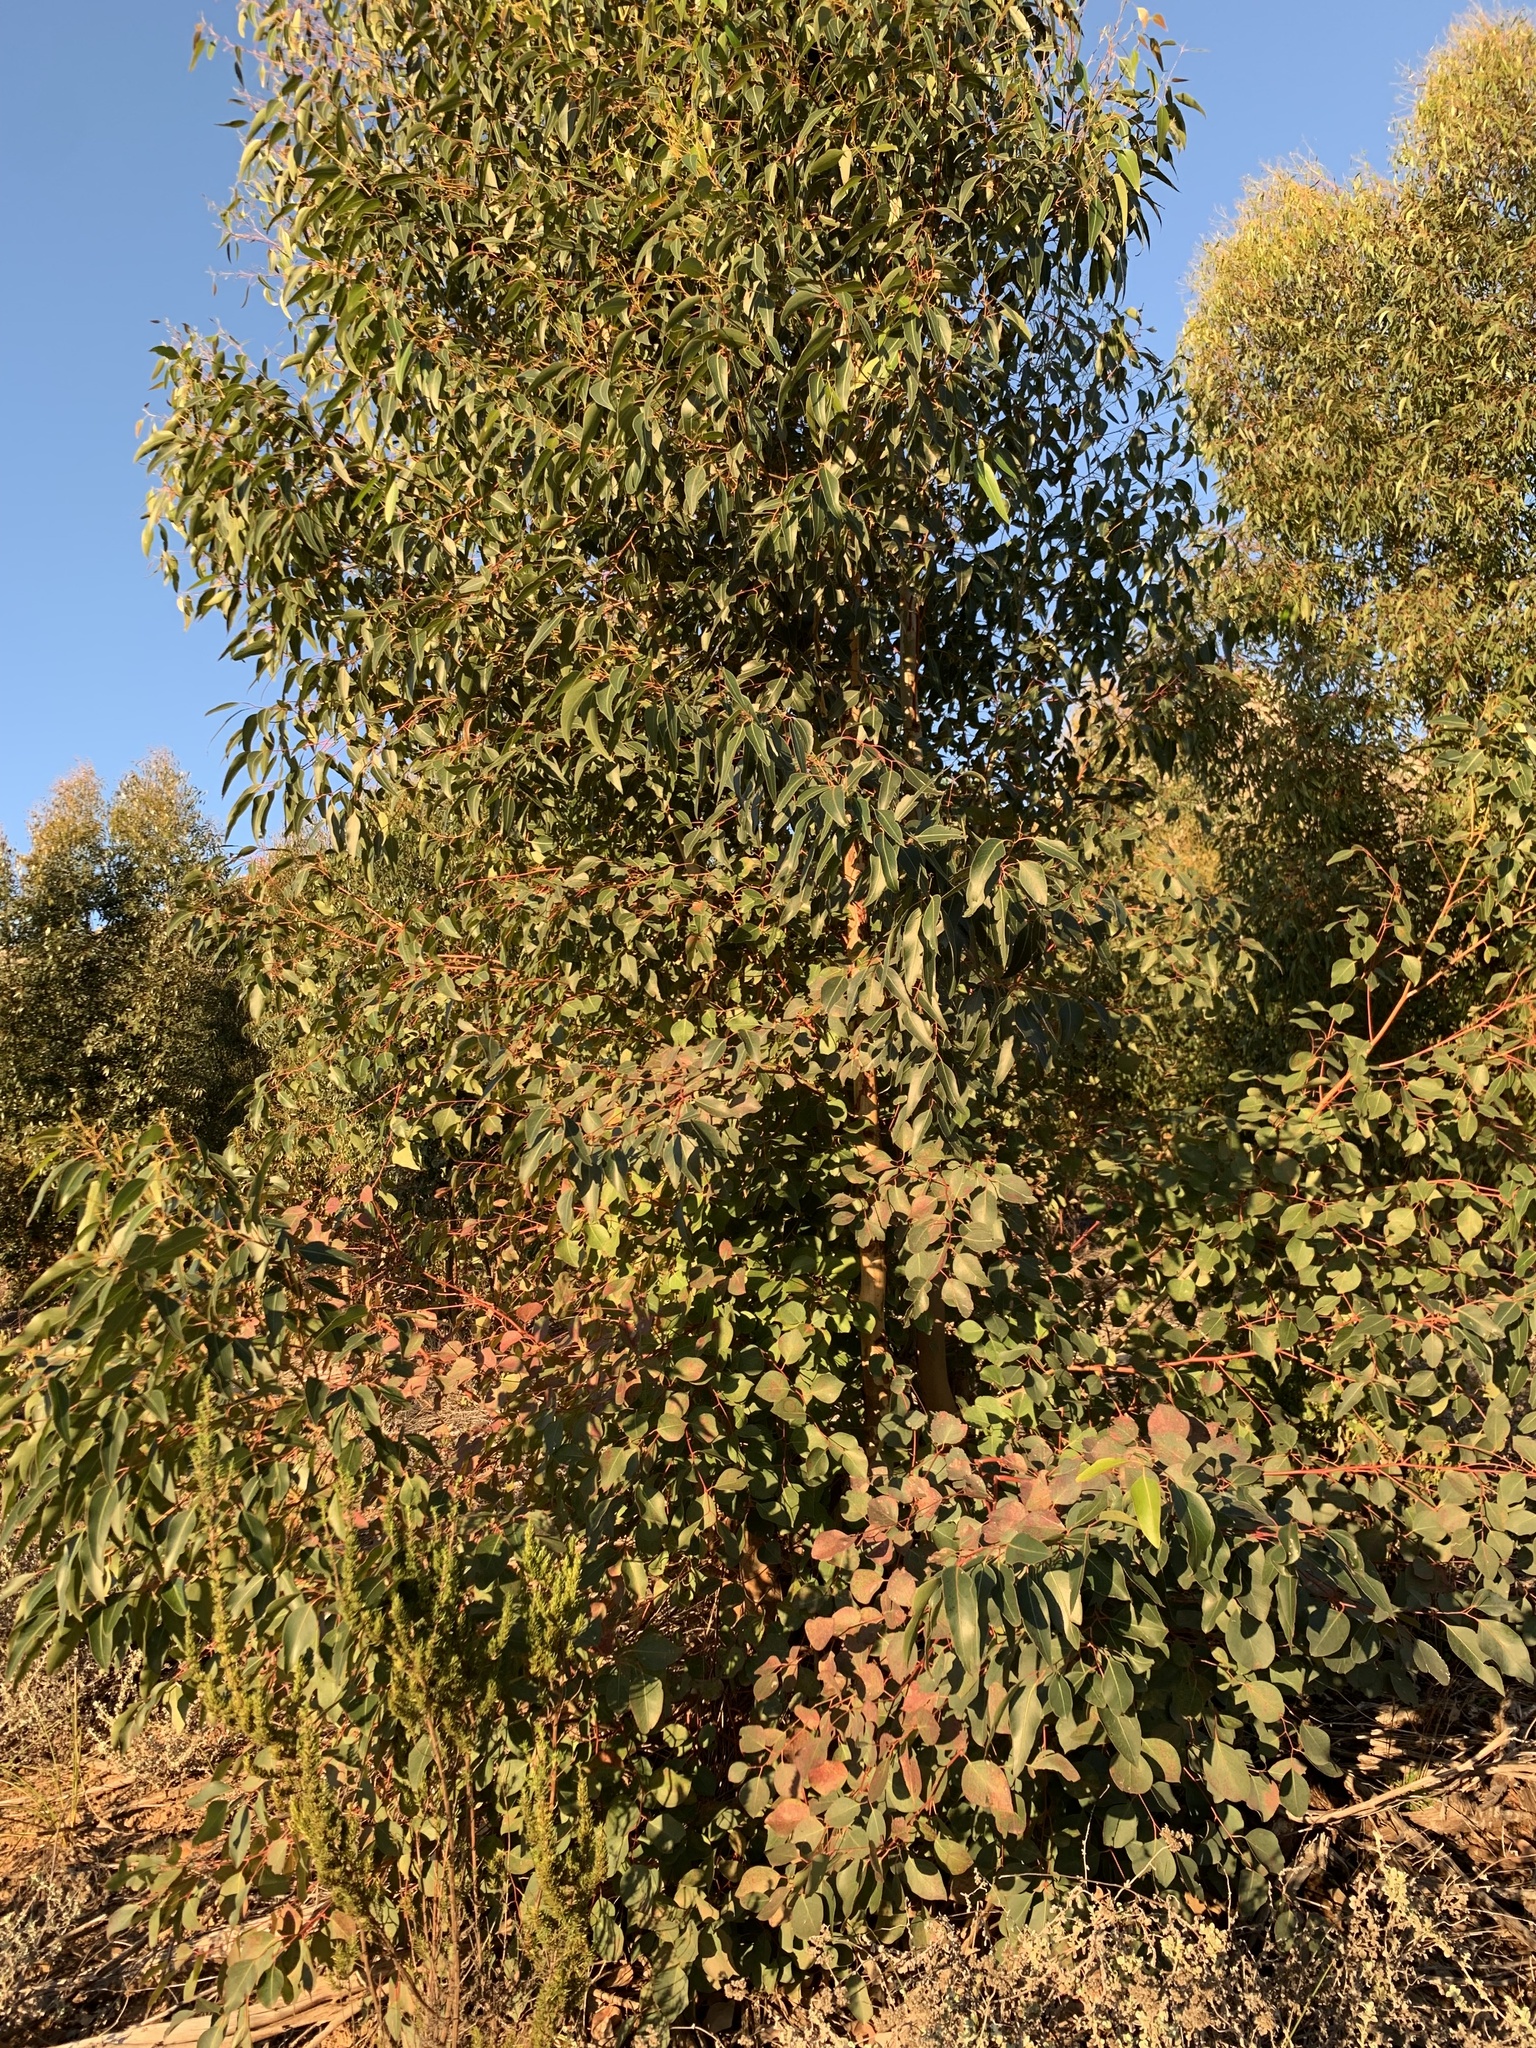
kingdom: Plantae
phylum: Tracheophyta
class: Magnoliopsida
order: Myrtales
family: Myrtaceae
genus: Eucalyptus
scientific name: Eucalyptus cladocalyx
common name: Sugargum
